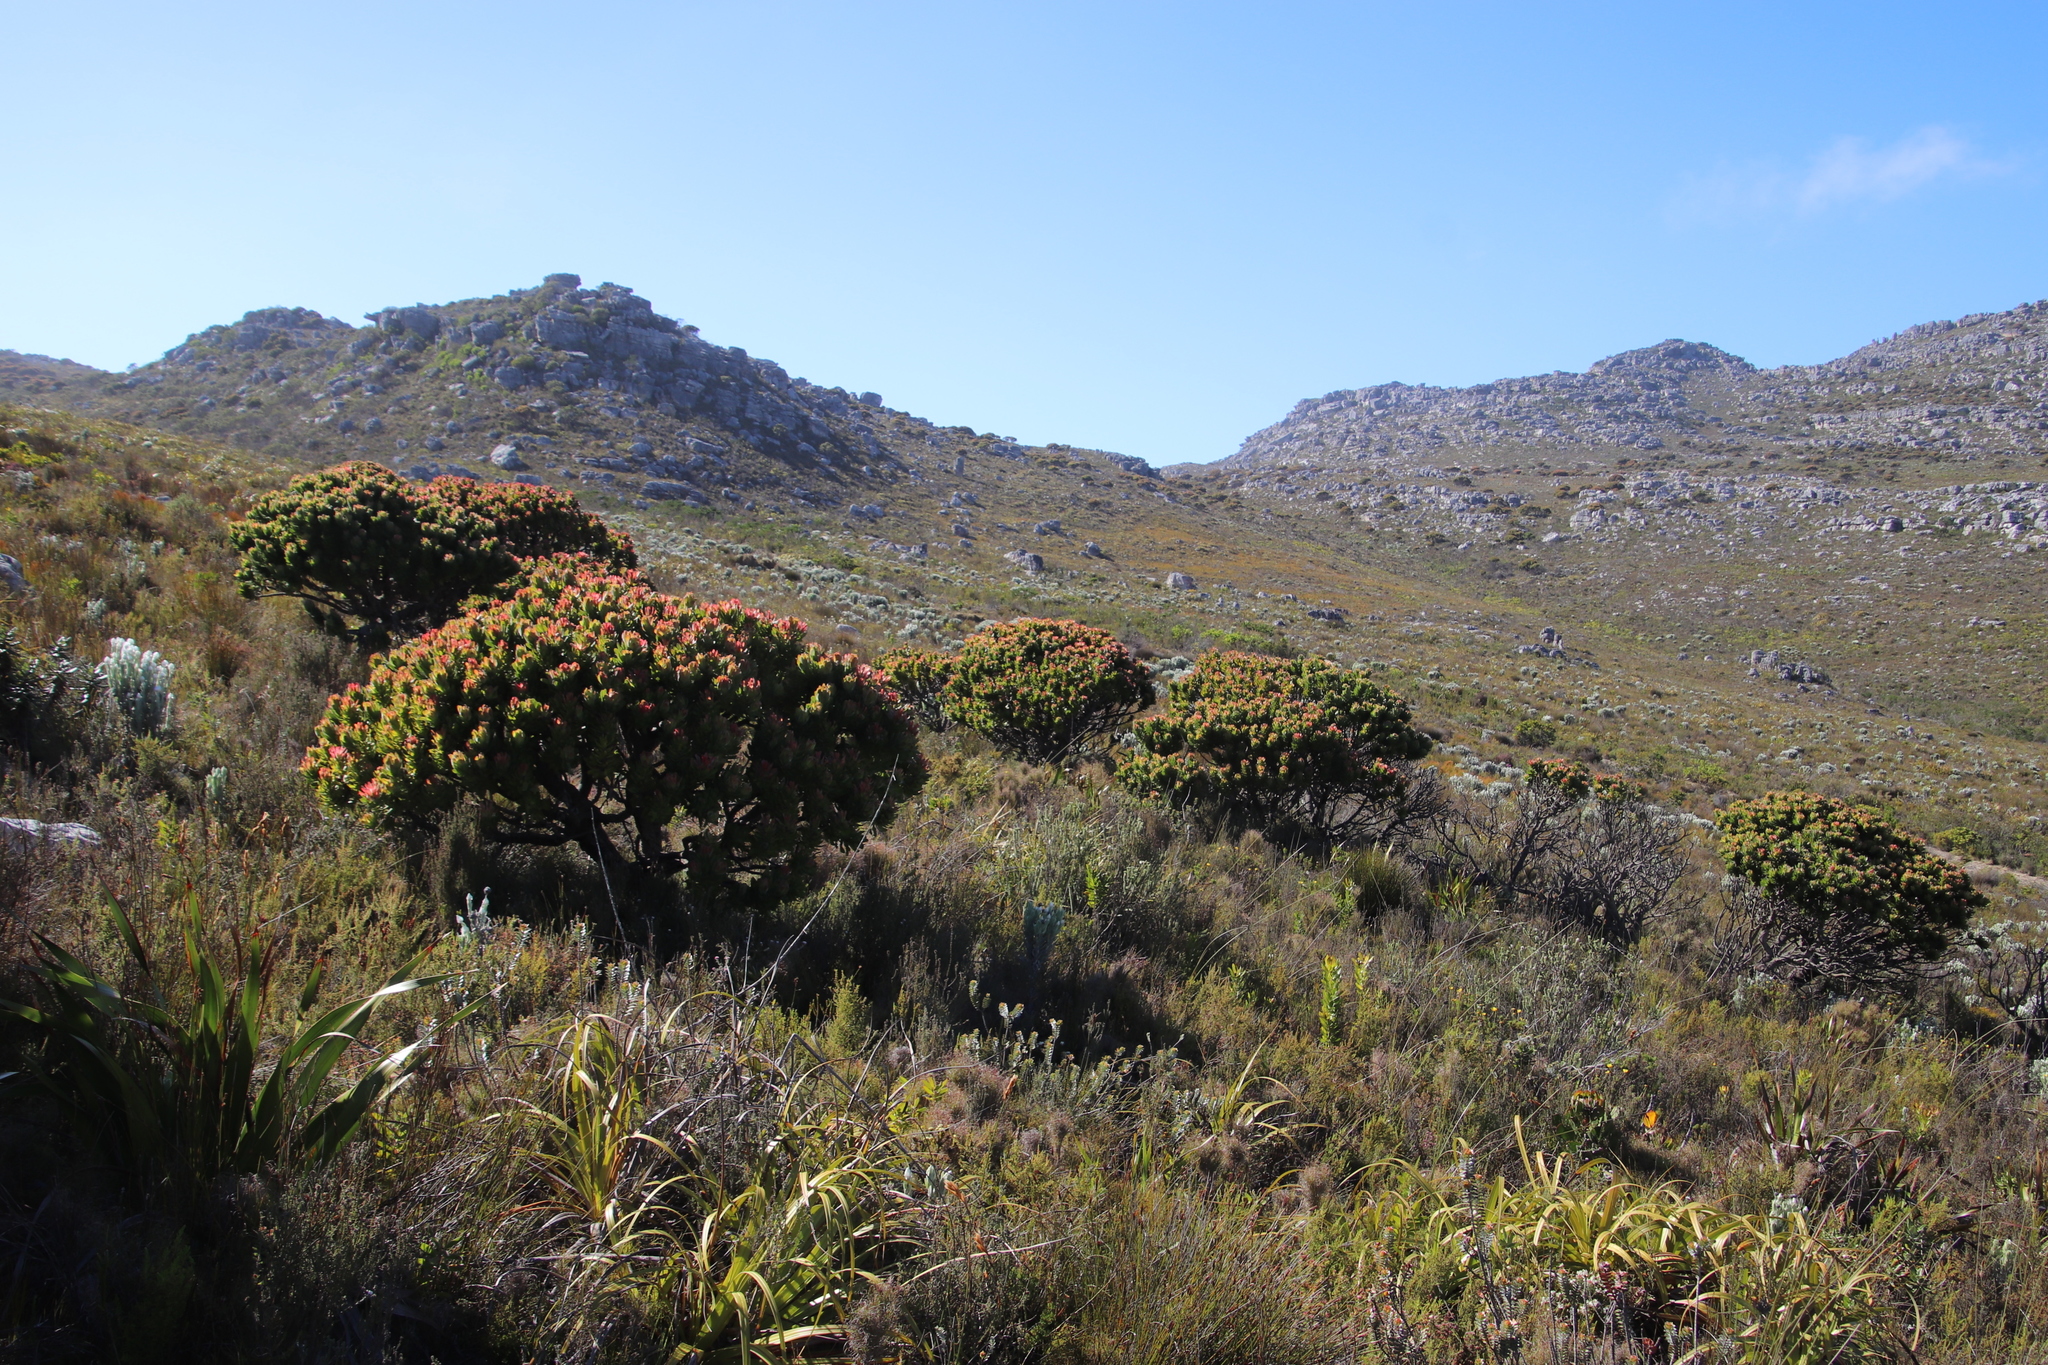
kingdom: Plantae
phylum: Tracheophyta
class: Magnoliopsida
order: Proteales
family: Proteaceae
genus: Mimetes
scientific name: Mimetes fimbriifolius
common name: Fringed bottlebrush
